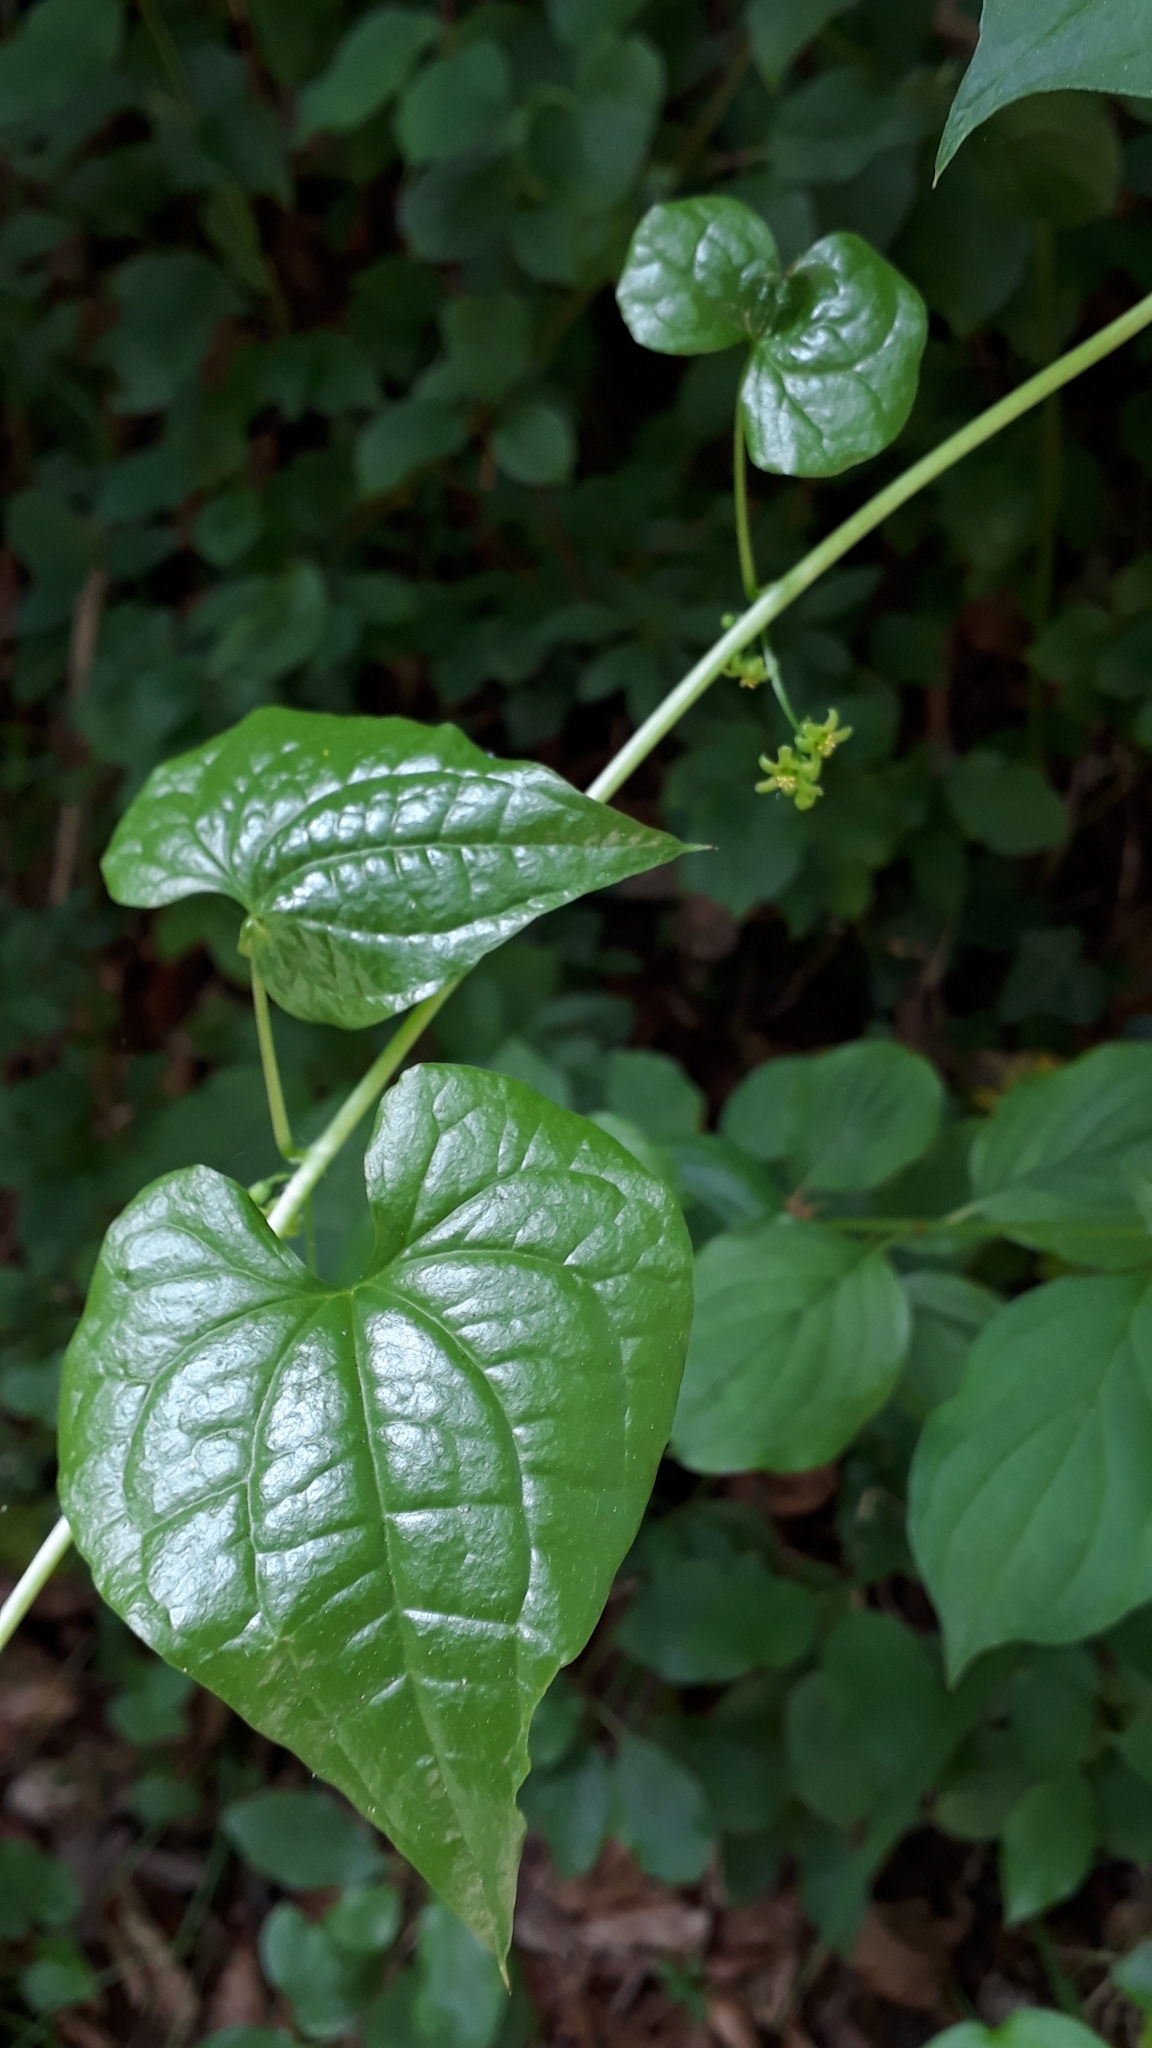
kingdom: Plantae
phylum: Tracheophyta
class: Liliopsida
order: Dioscoreales
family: Dioscoreaceae
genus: Dioscorea
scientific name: Dioscorea communis
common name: Black-bindweed
